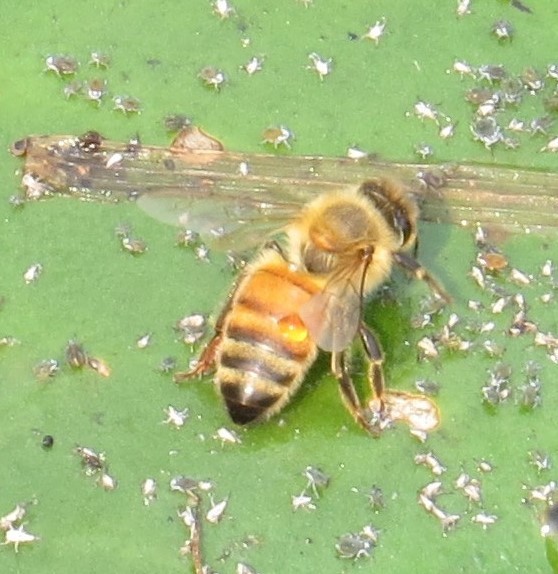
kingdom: Animalia
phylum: Arthropoda
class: Insecta
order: Hymenoptera
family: Apidae
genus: Apis
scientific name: Apis mellifera
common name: Honey bee
